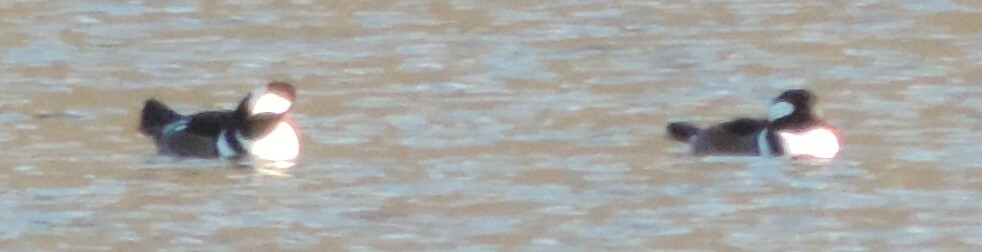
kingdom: Animalia
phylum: Chordata
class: Aves
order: Anseriformes
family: Anatidae
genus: Lophodytes
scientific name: Lophodytes cucullatus
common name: Hooded merganser
